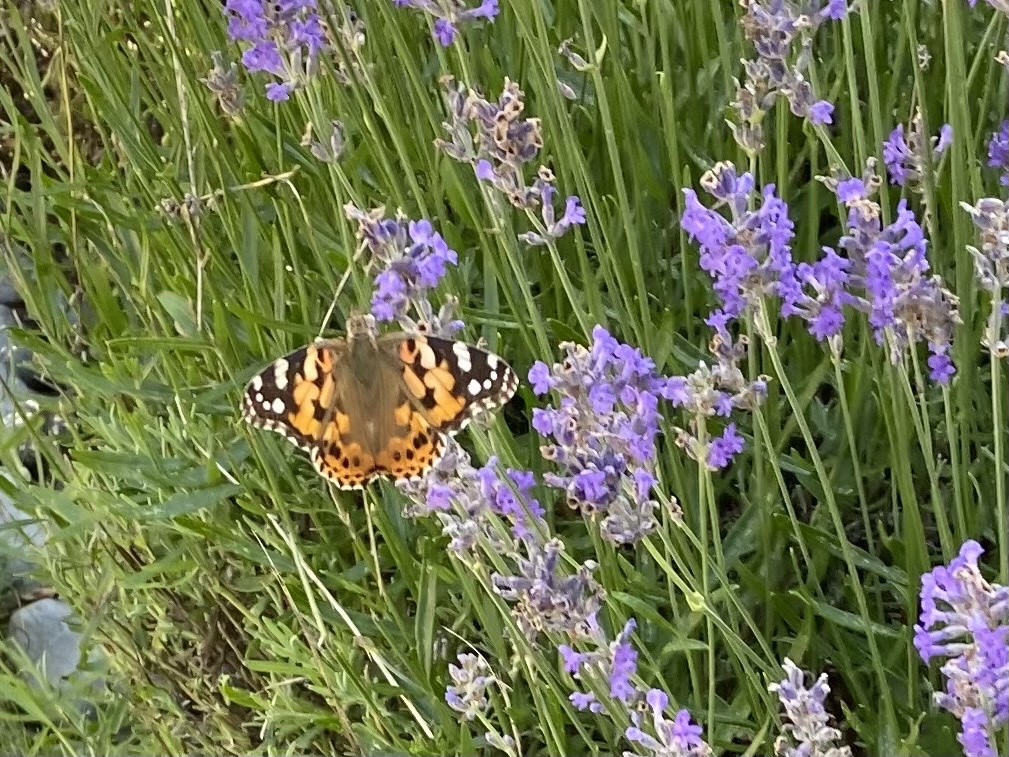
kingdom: Animalia
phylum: Arthropoda
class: Insecta
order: Lepidoptera
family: Nymphalidae
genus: Vanessa
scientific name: Vanessa cardui
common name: Painted lady
